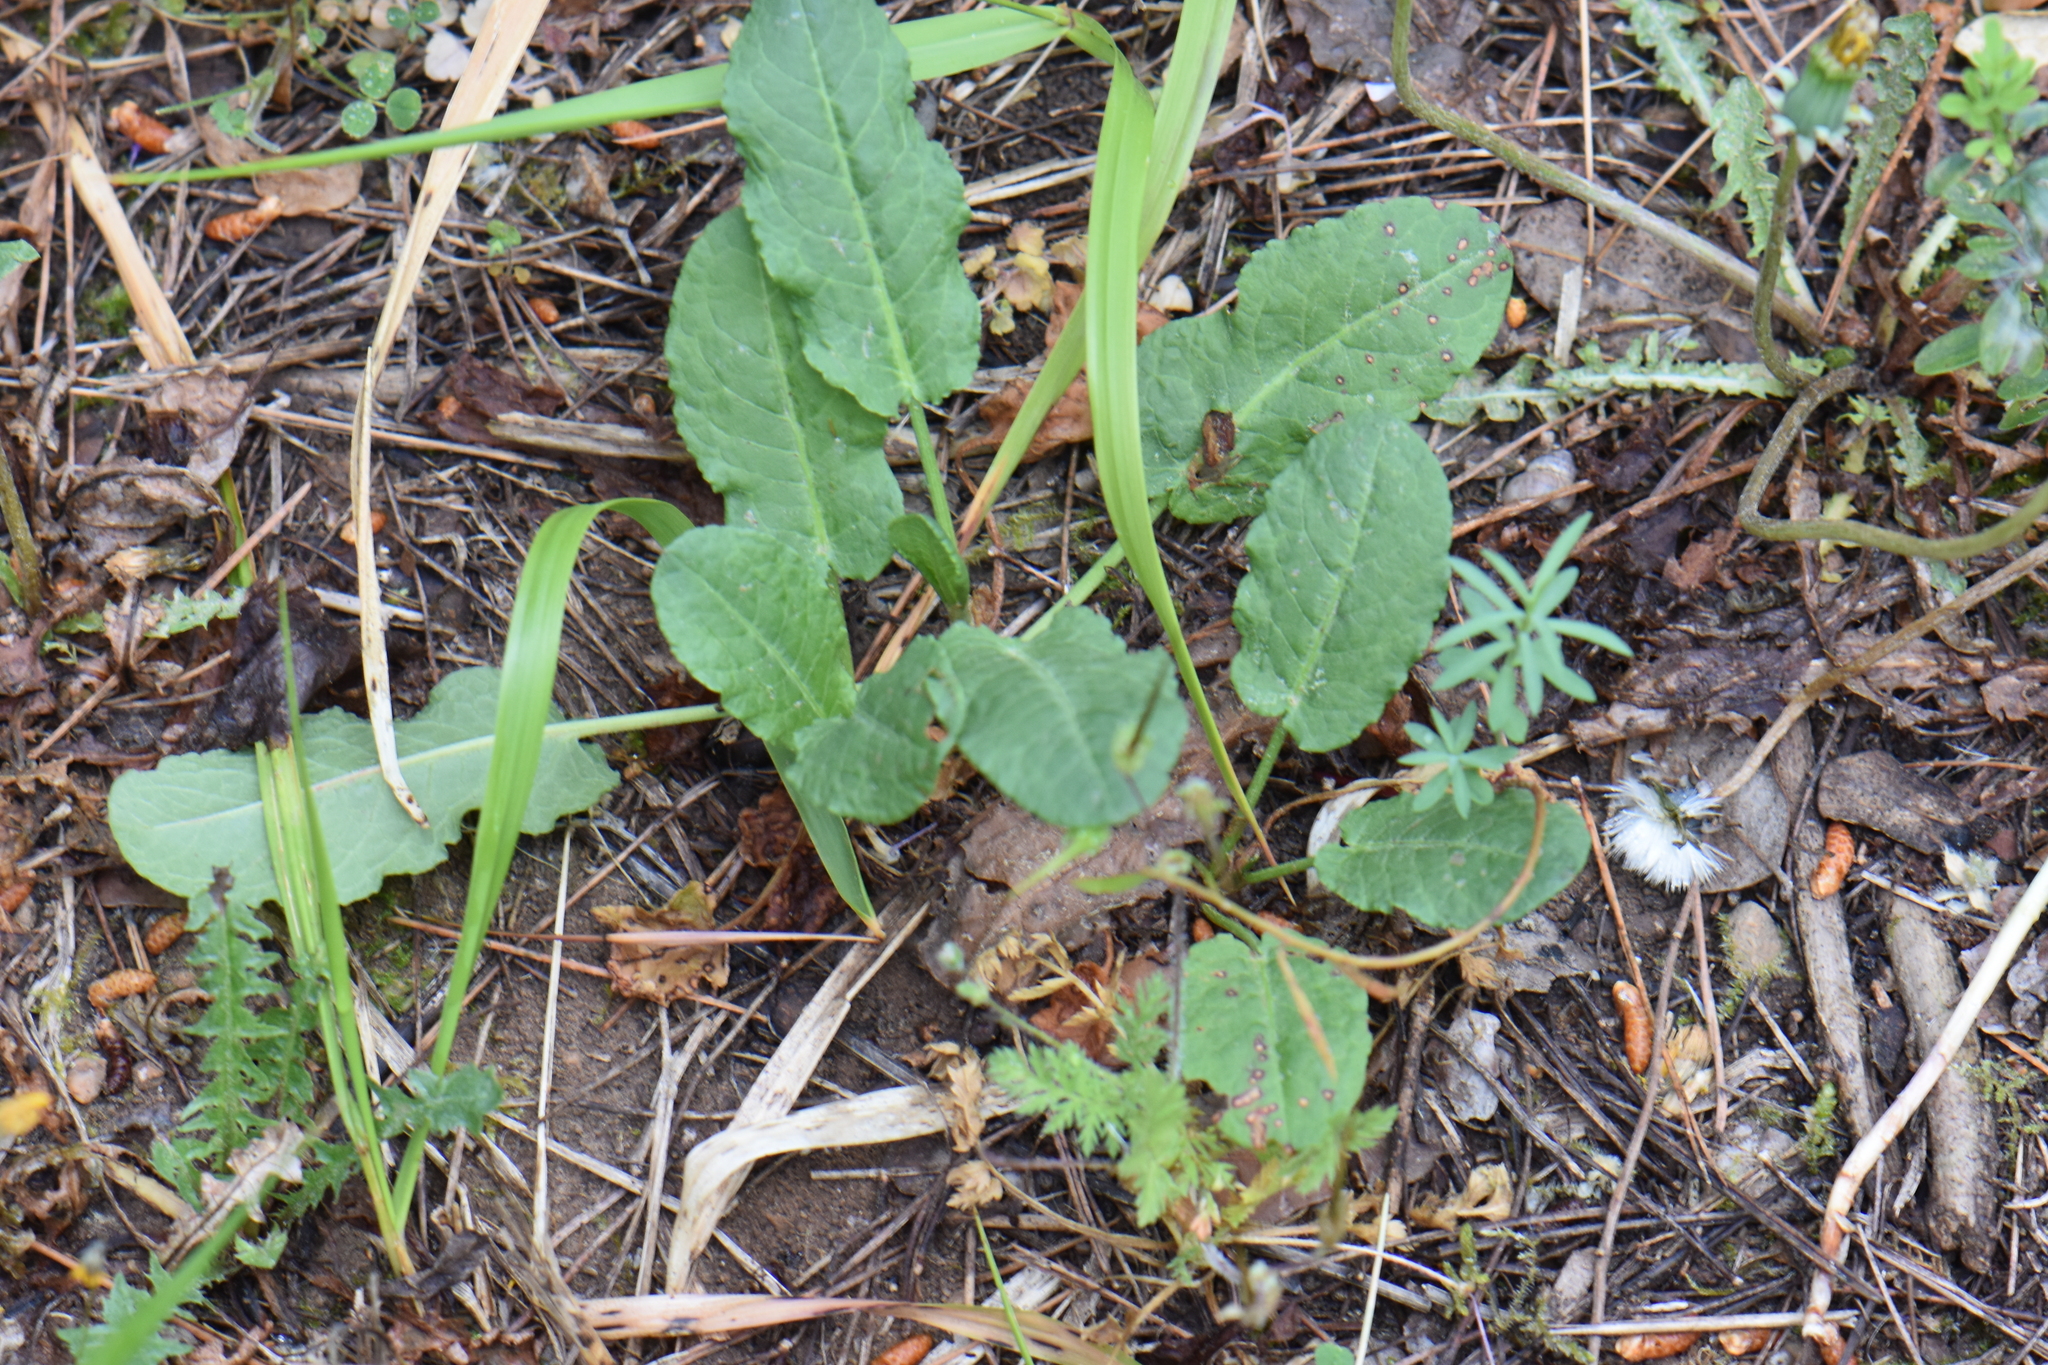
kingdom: Plantae
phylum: Tracheophyta
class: Magnoliopsida
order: Caryophyllales
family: Polygonaceae
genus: Rumex
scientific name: Rumex pulcher
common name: Fiddle dock
